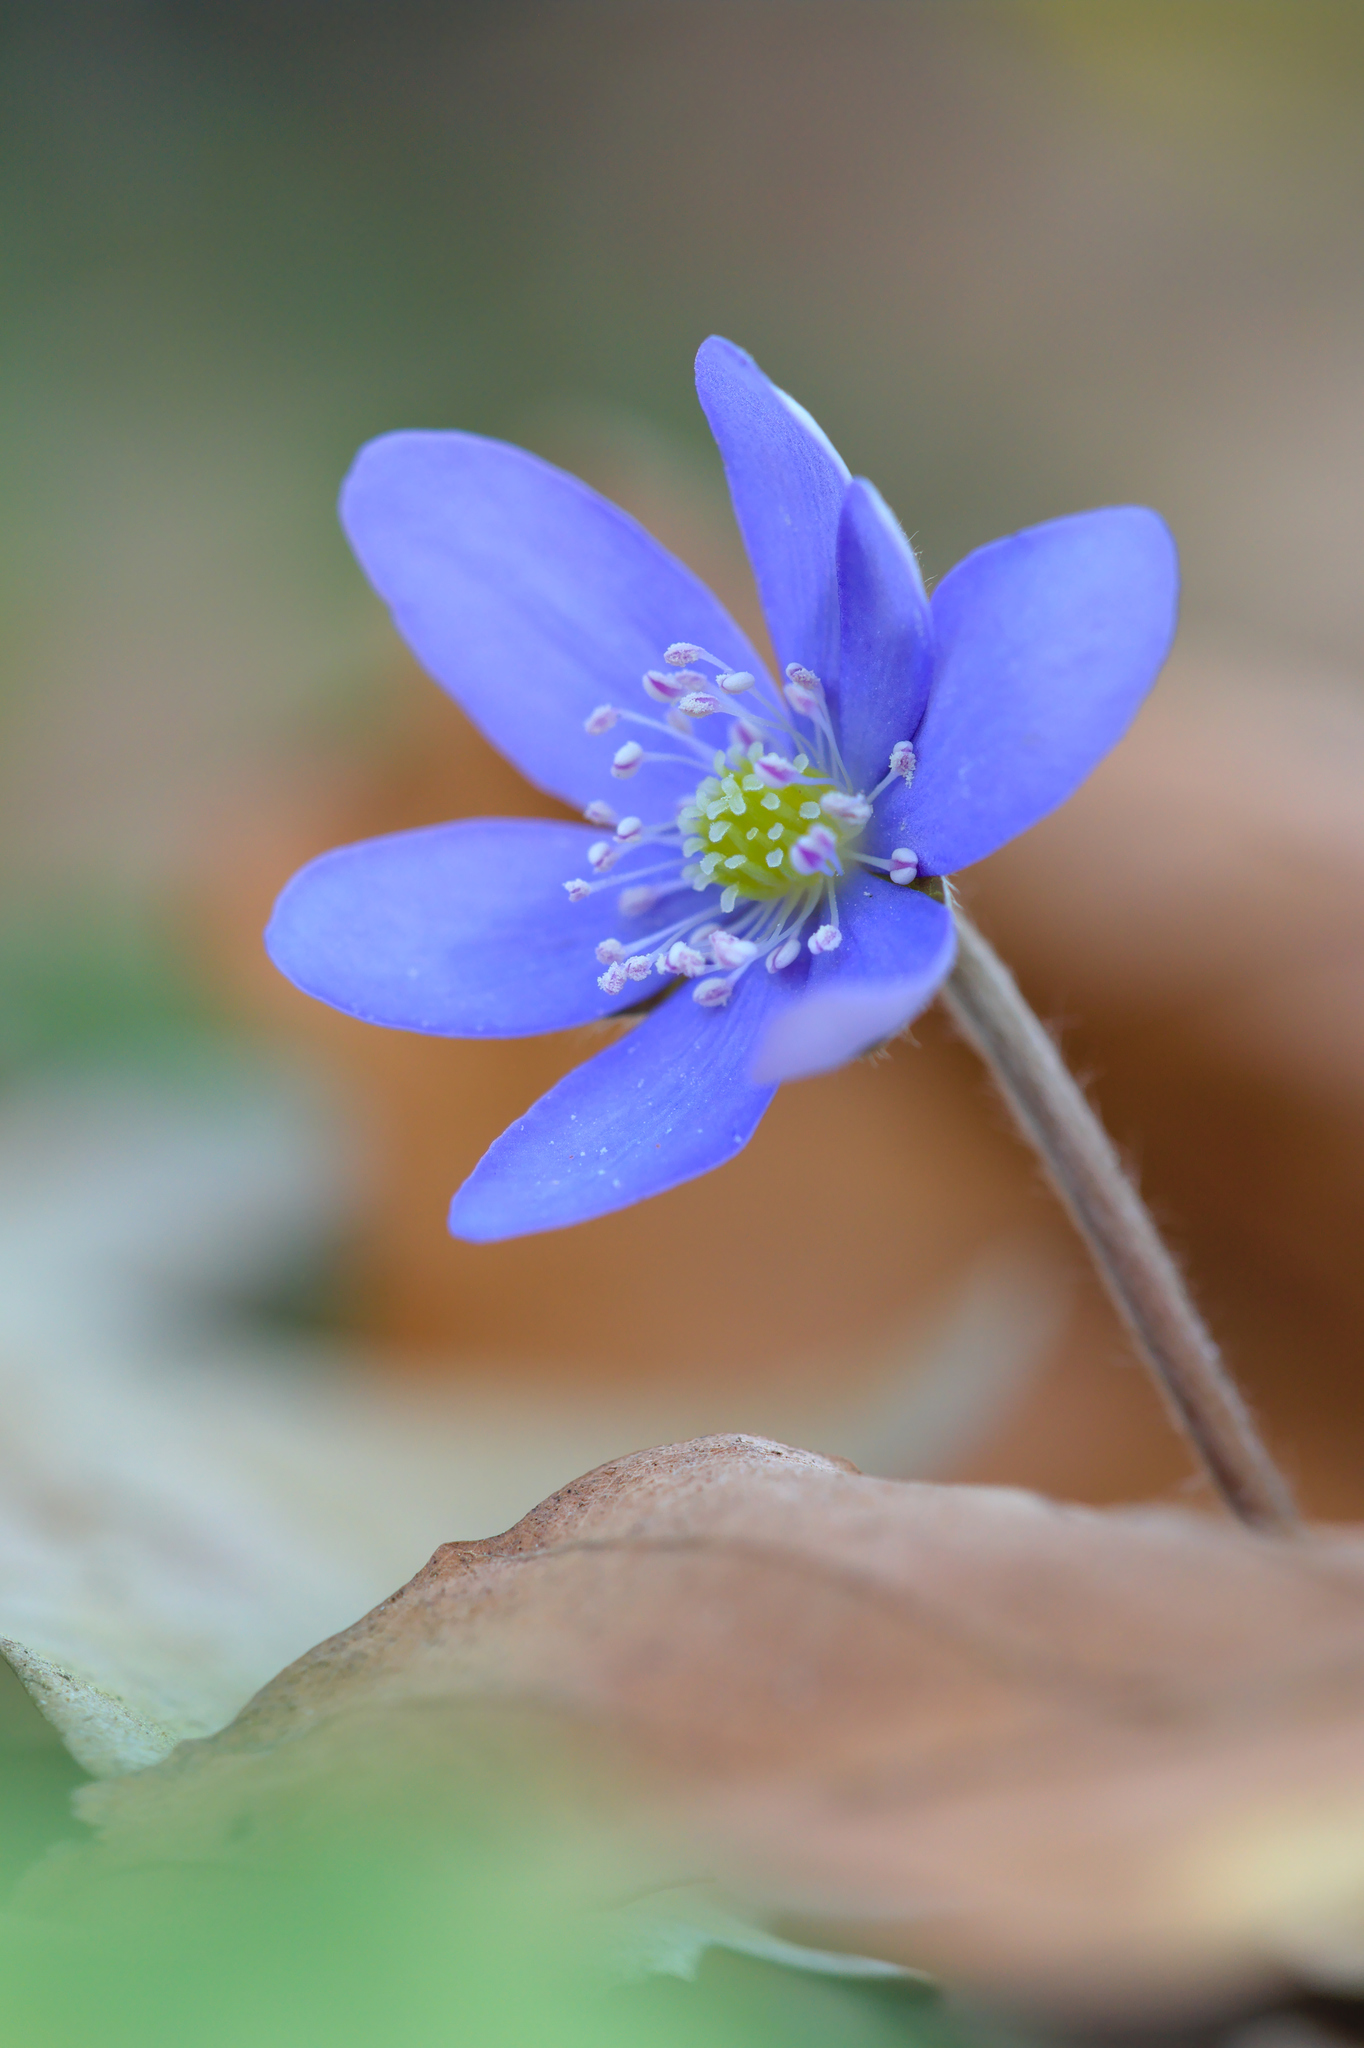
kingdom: Plantae
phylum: Tracheophyta
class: Magnoliopsida
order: Ranunculales
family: Ranunculaceae
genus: Hepatica
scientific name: Hepatica nobilis
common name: Liverleaf
